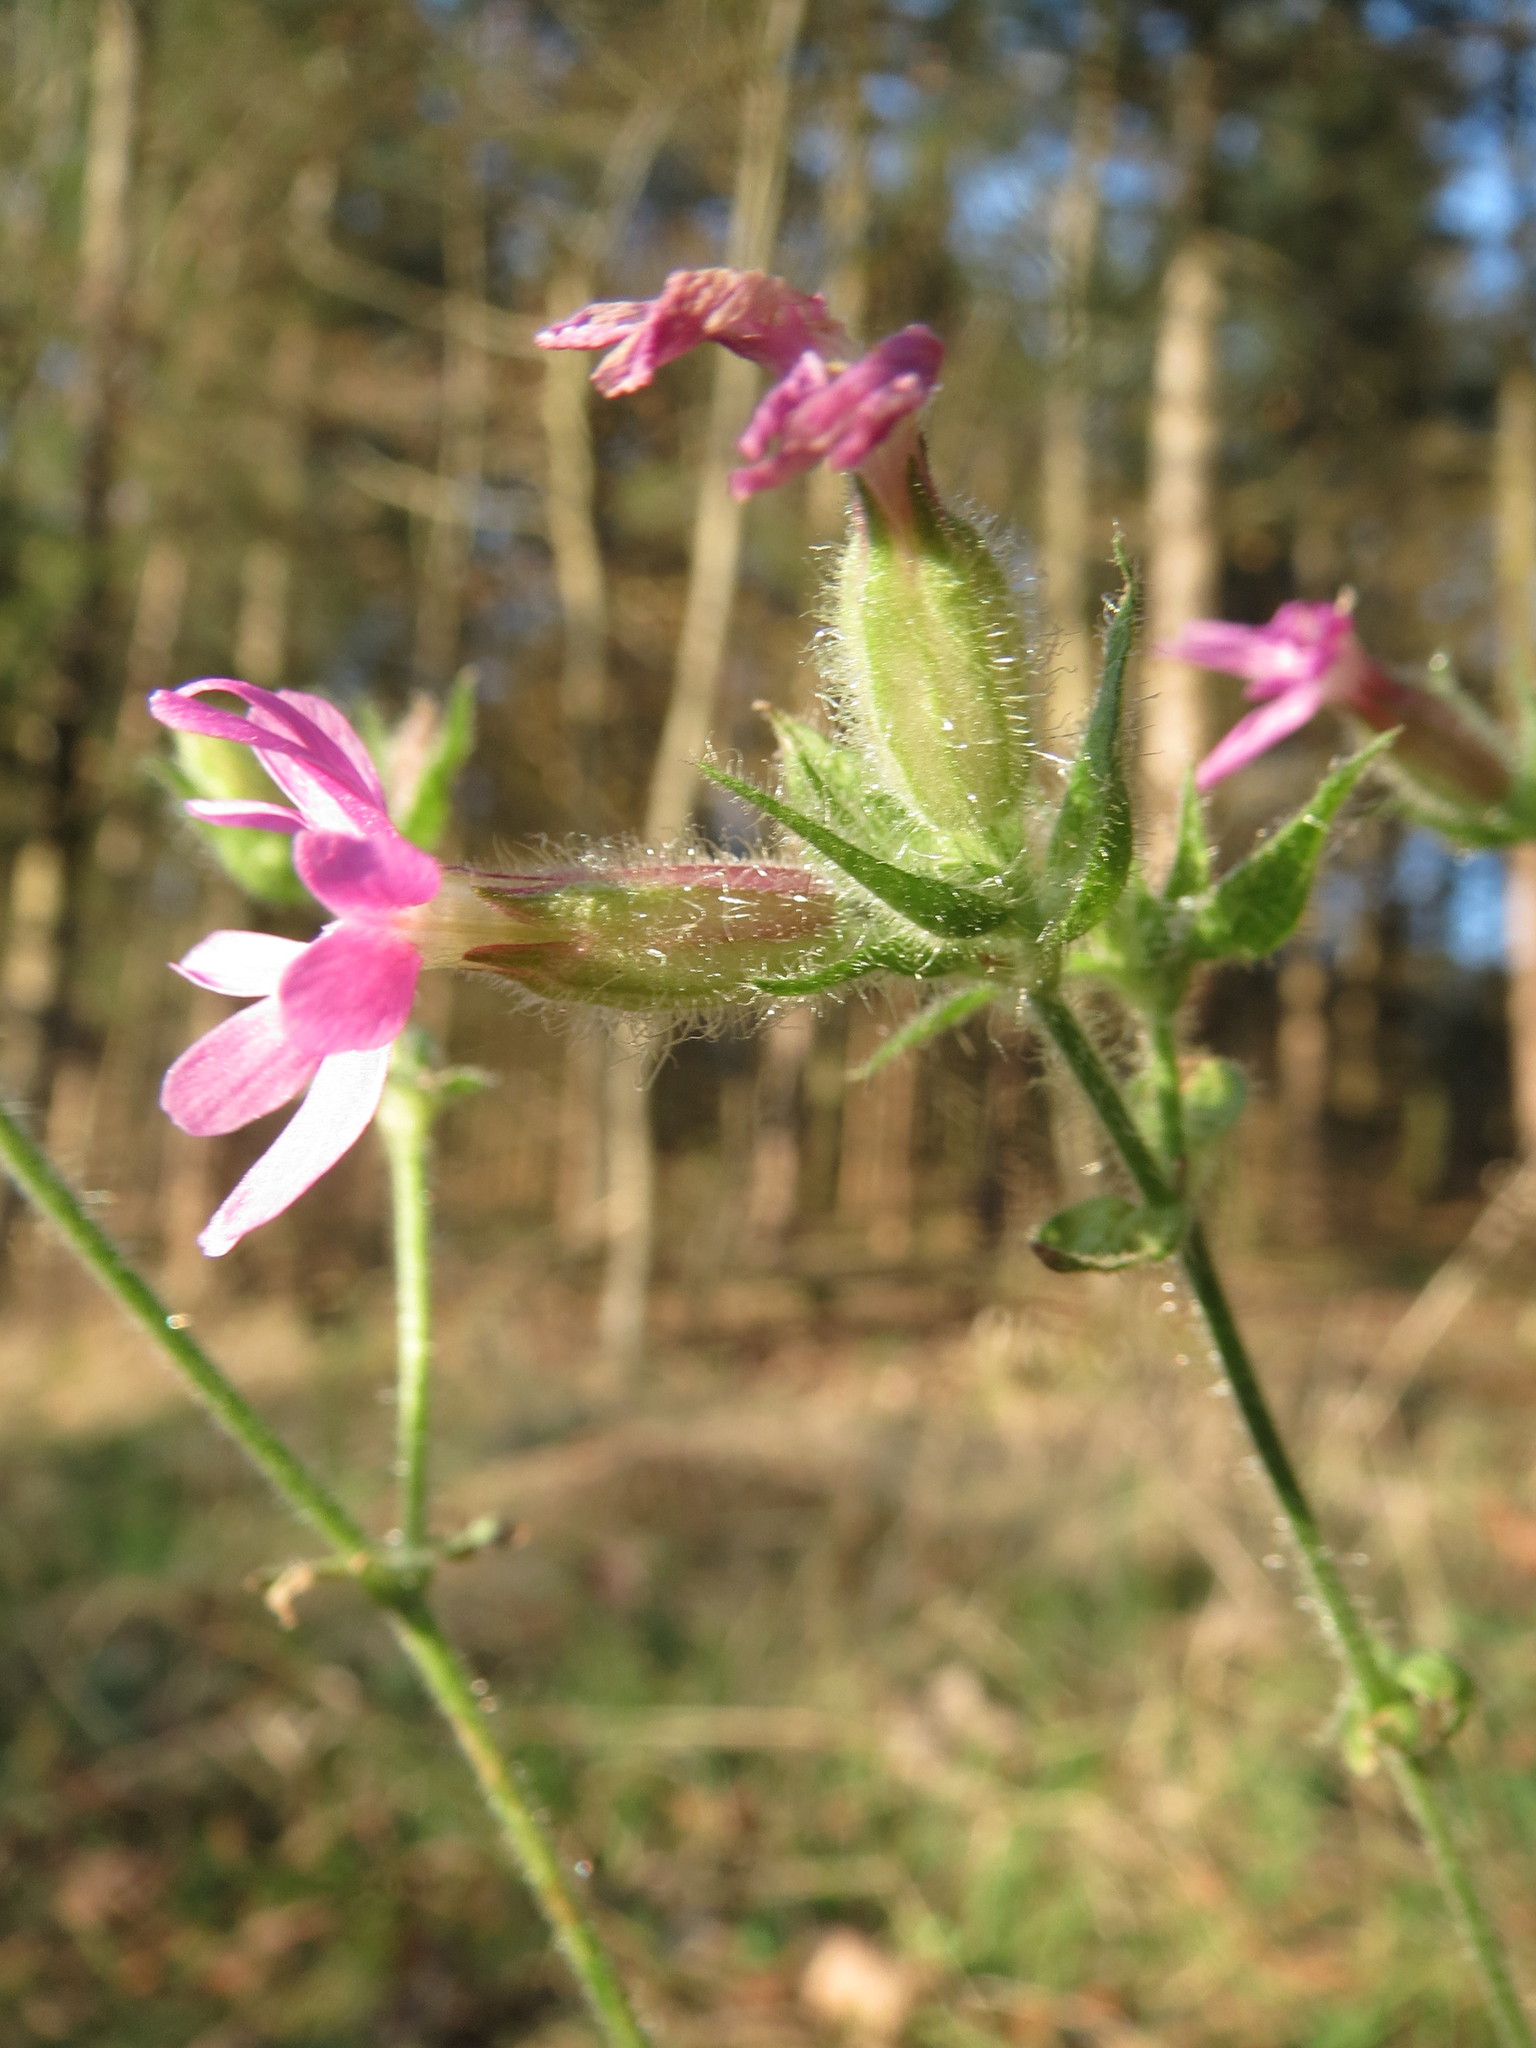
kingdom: Plantae
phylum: Tracheophyta
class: Magnoliopsida
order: Caryophyllales
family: Caryophyllaceae
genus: Silene
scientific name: Silene dioica
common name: Red campion
